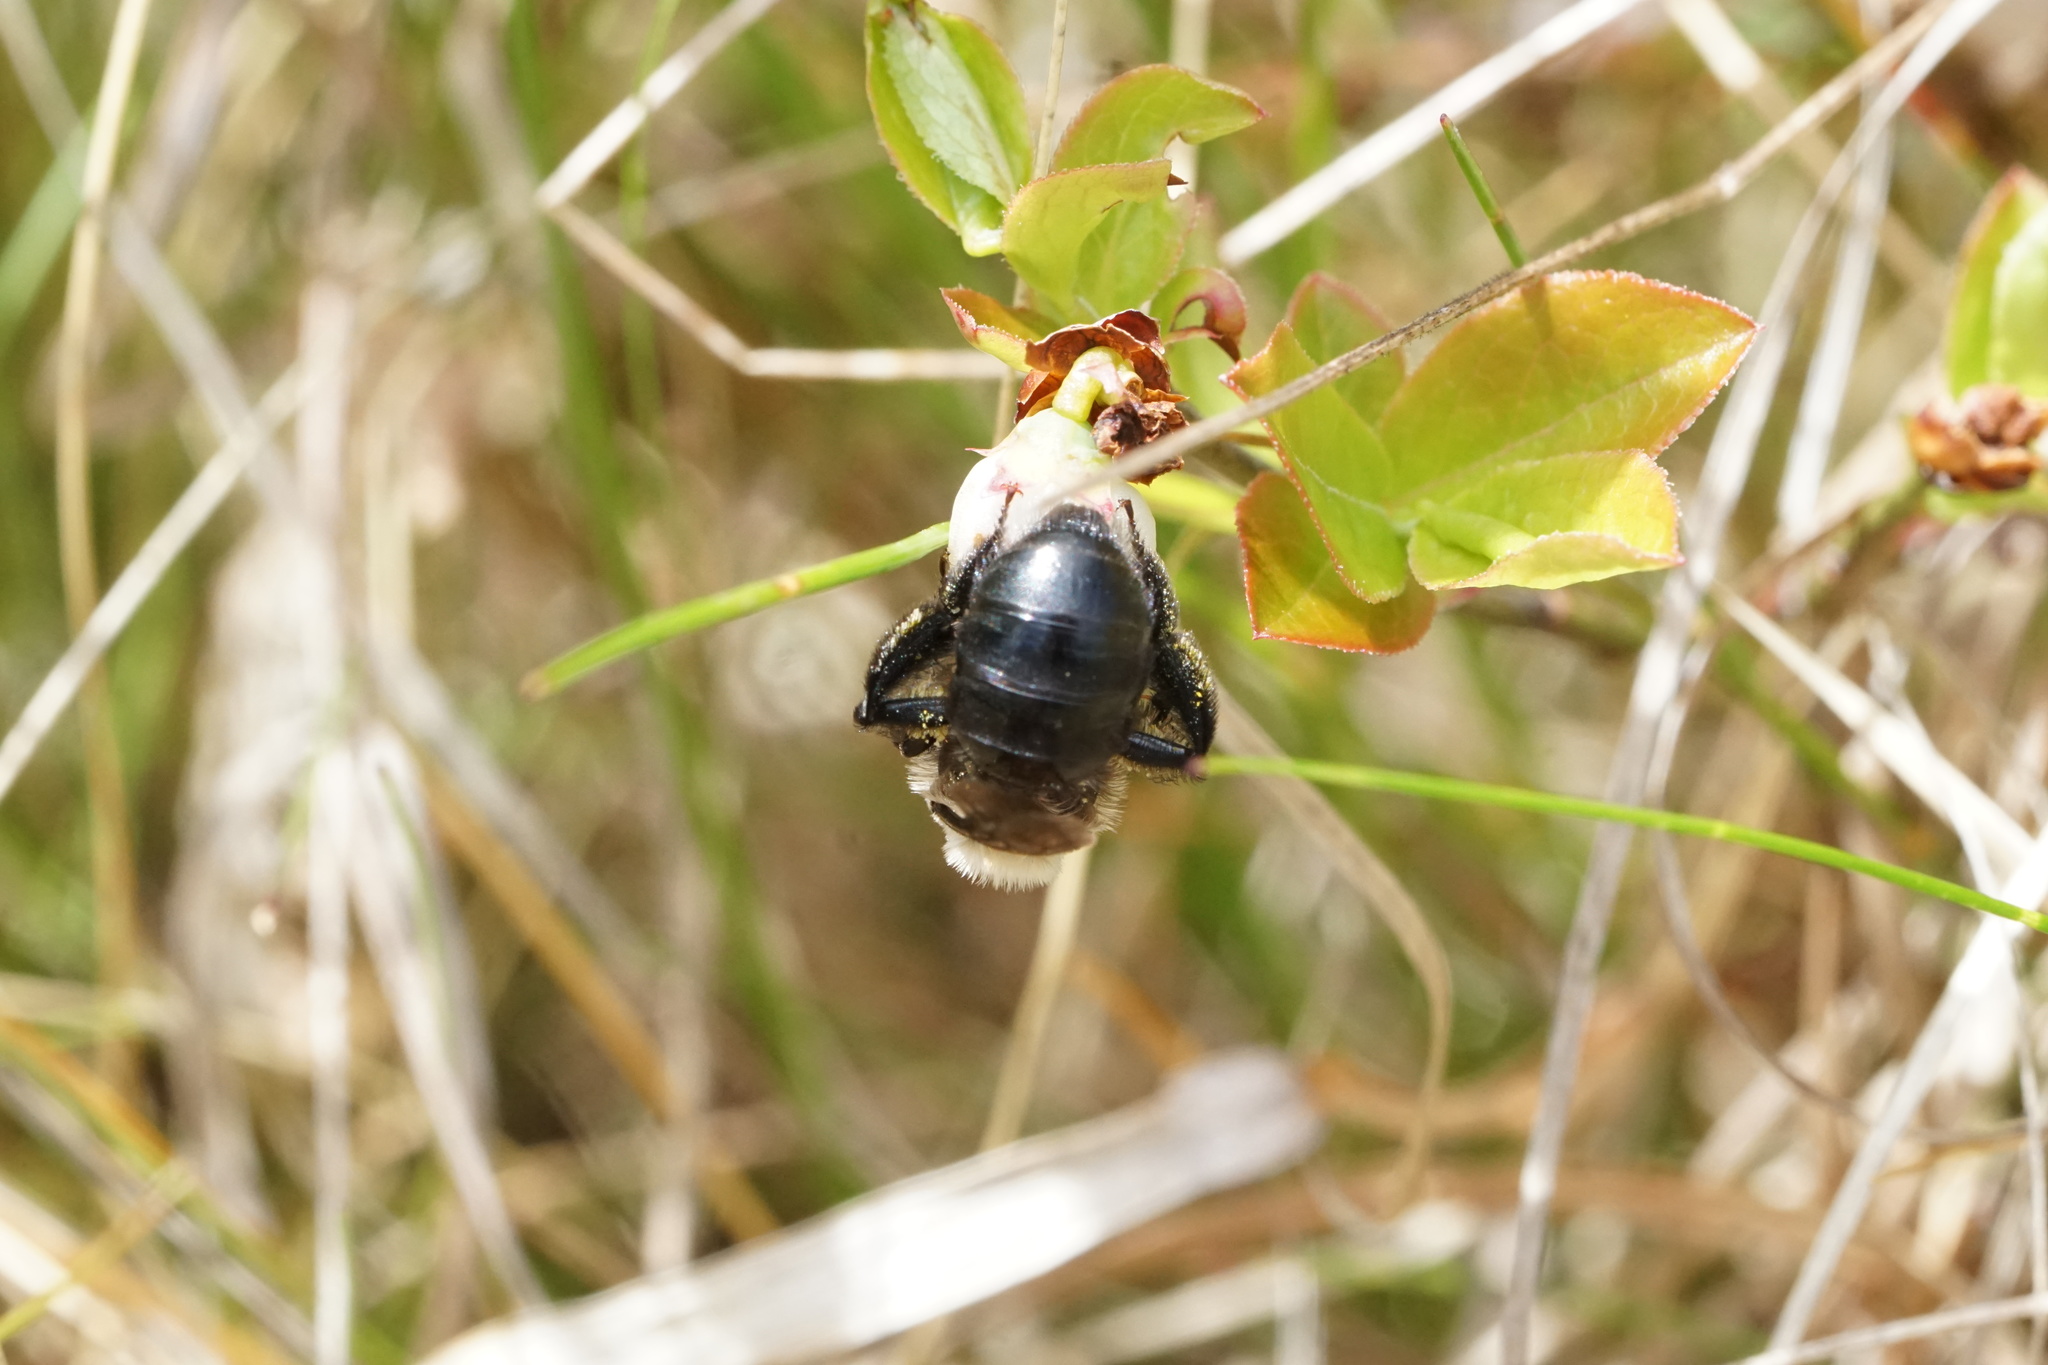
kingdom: Animalia
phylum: Arthropoda
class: Insecta
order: Hymenoptera
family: Andrenidae
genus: Andrena
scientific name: Andrena carlini
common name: Carlin's mining bee
